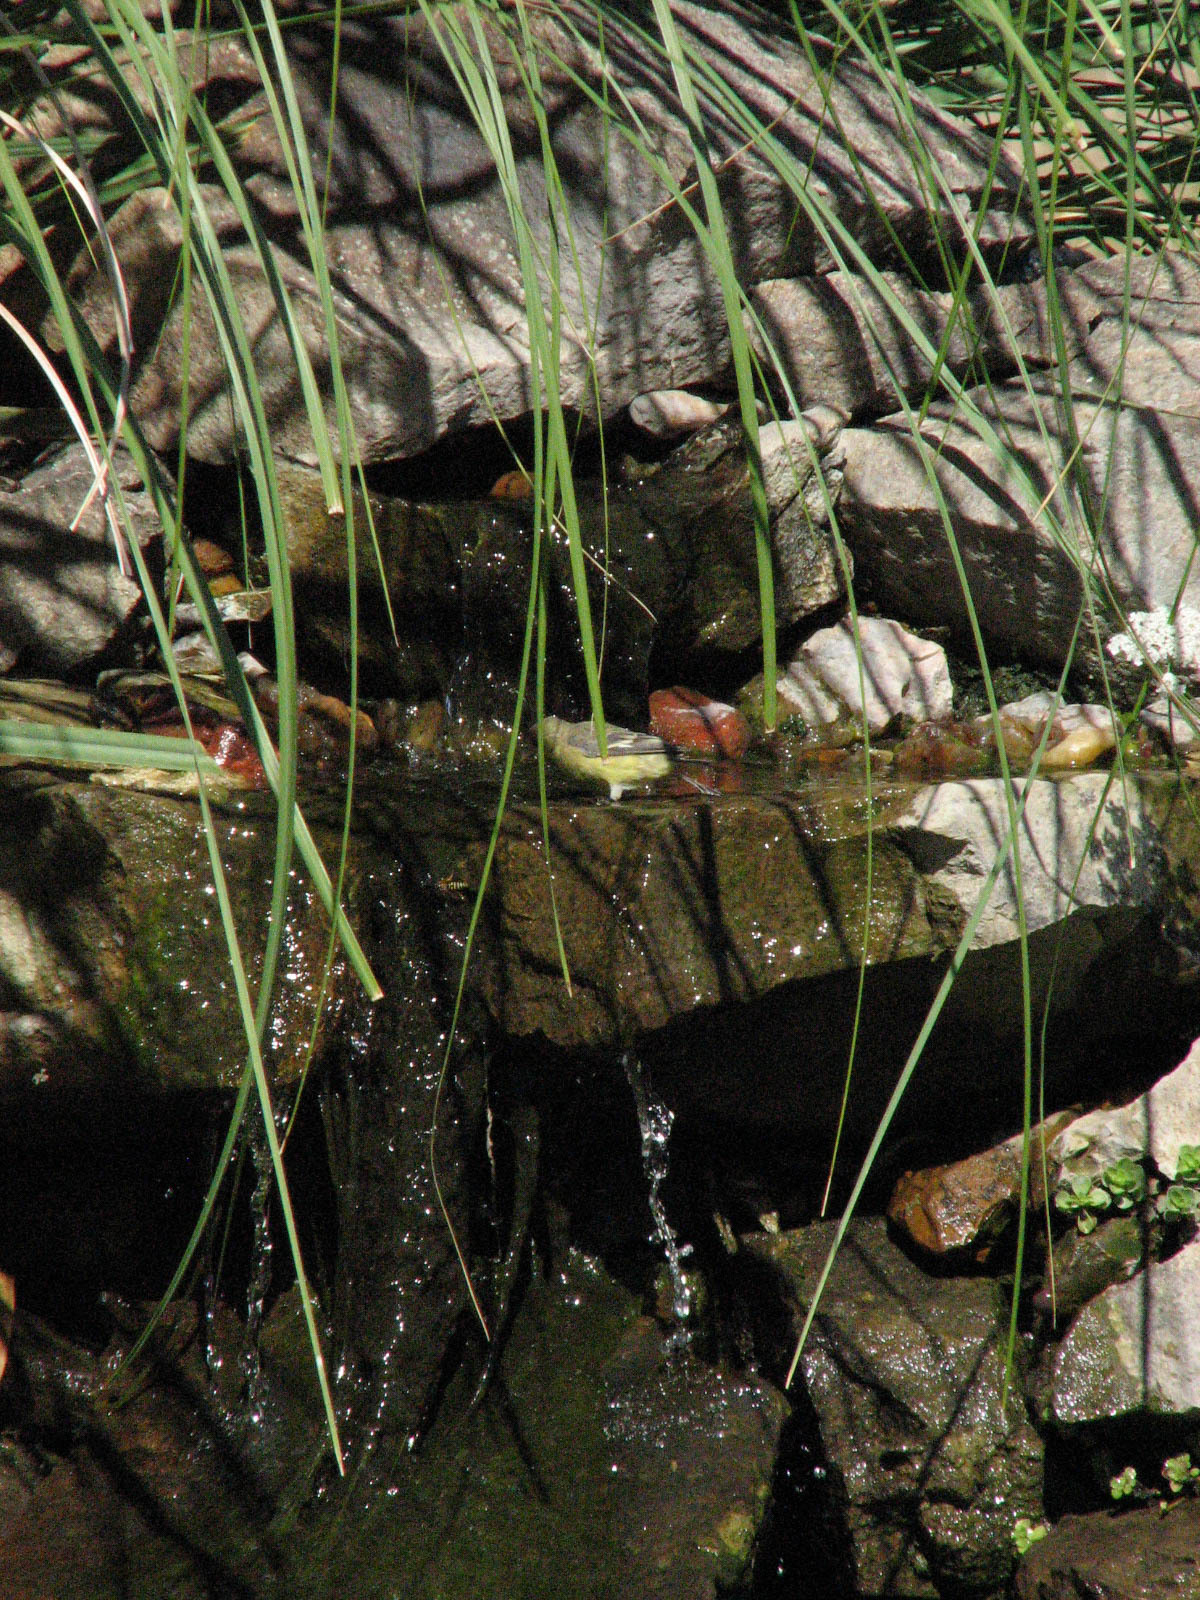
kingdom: Animalia
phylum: Chordata
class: Aves
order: Passeriformes
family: Fringillidae
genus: Spinus
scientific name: Spinus psaltria
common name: Lesser goldfinch
